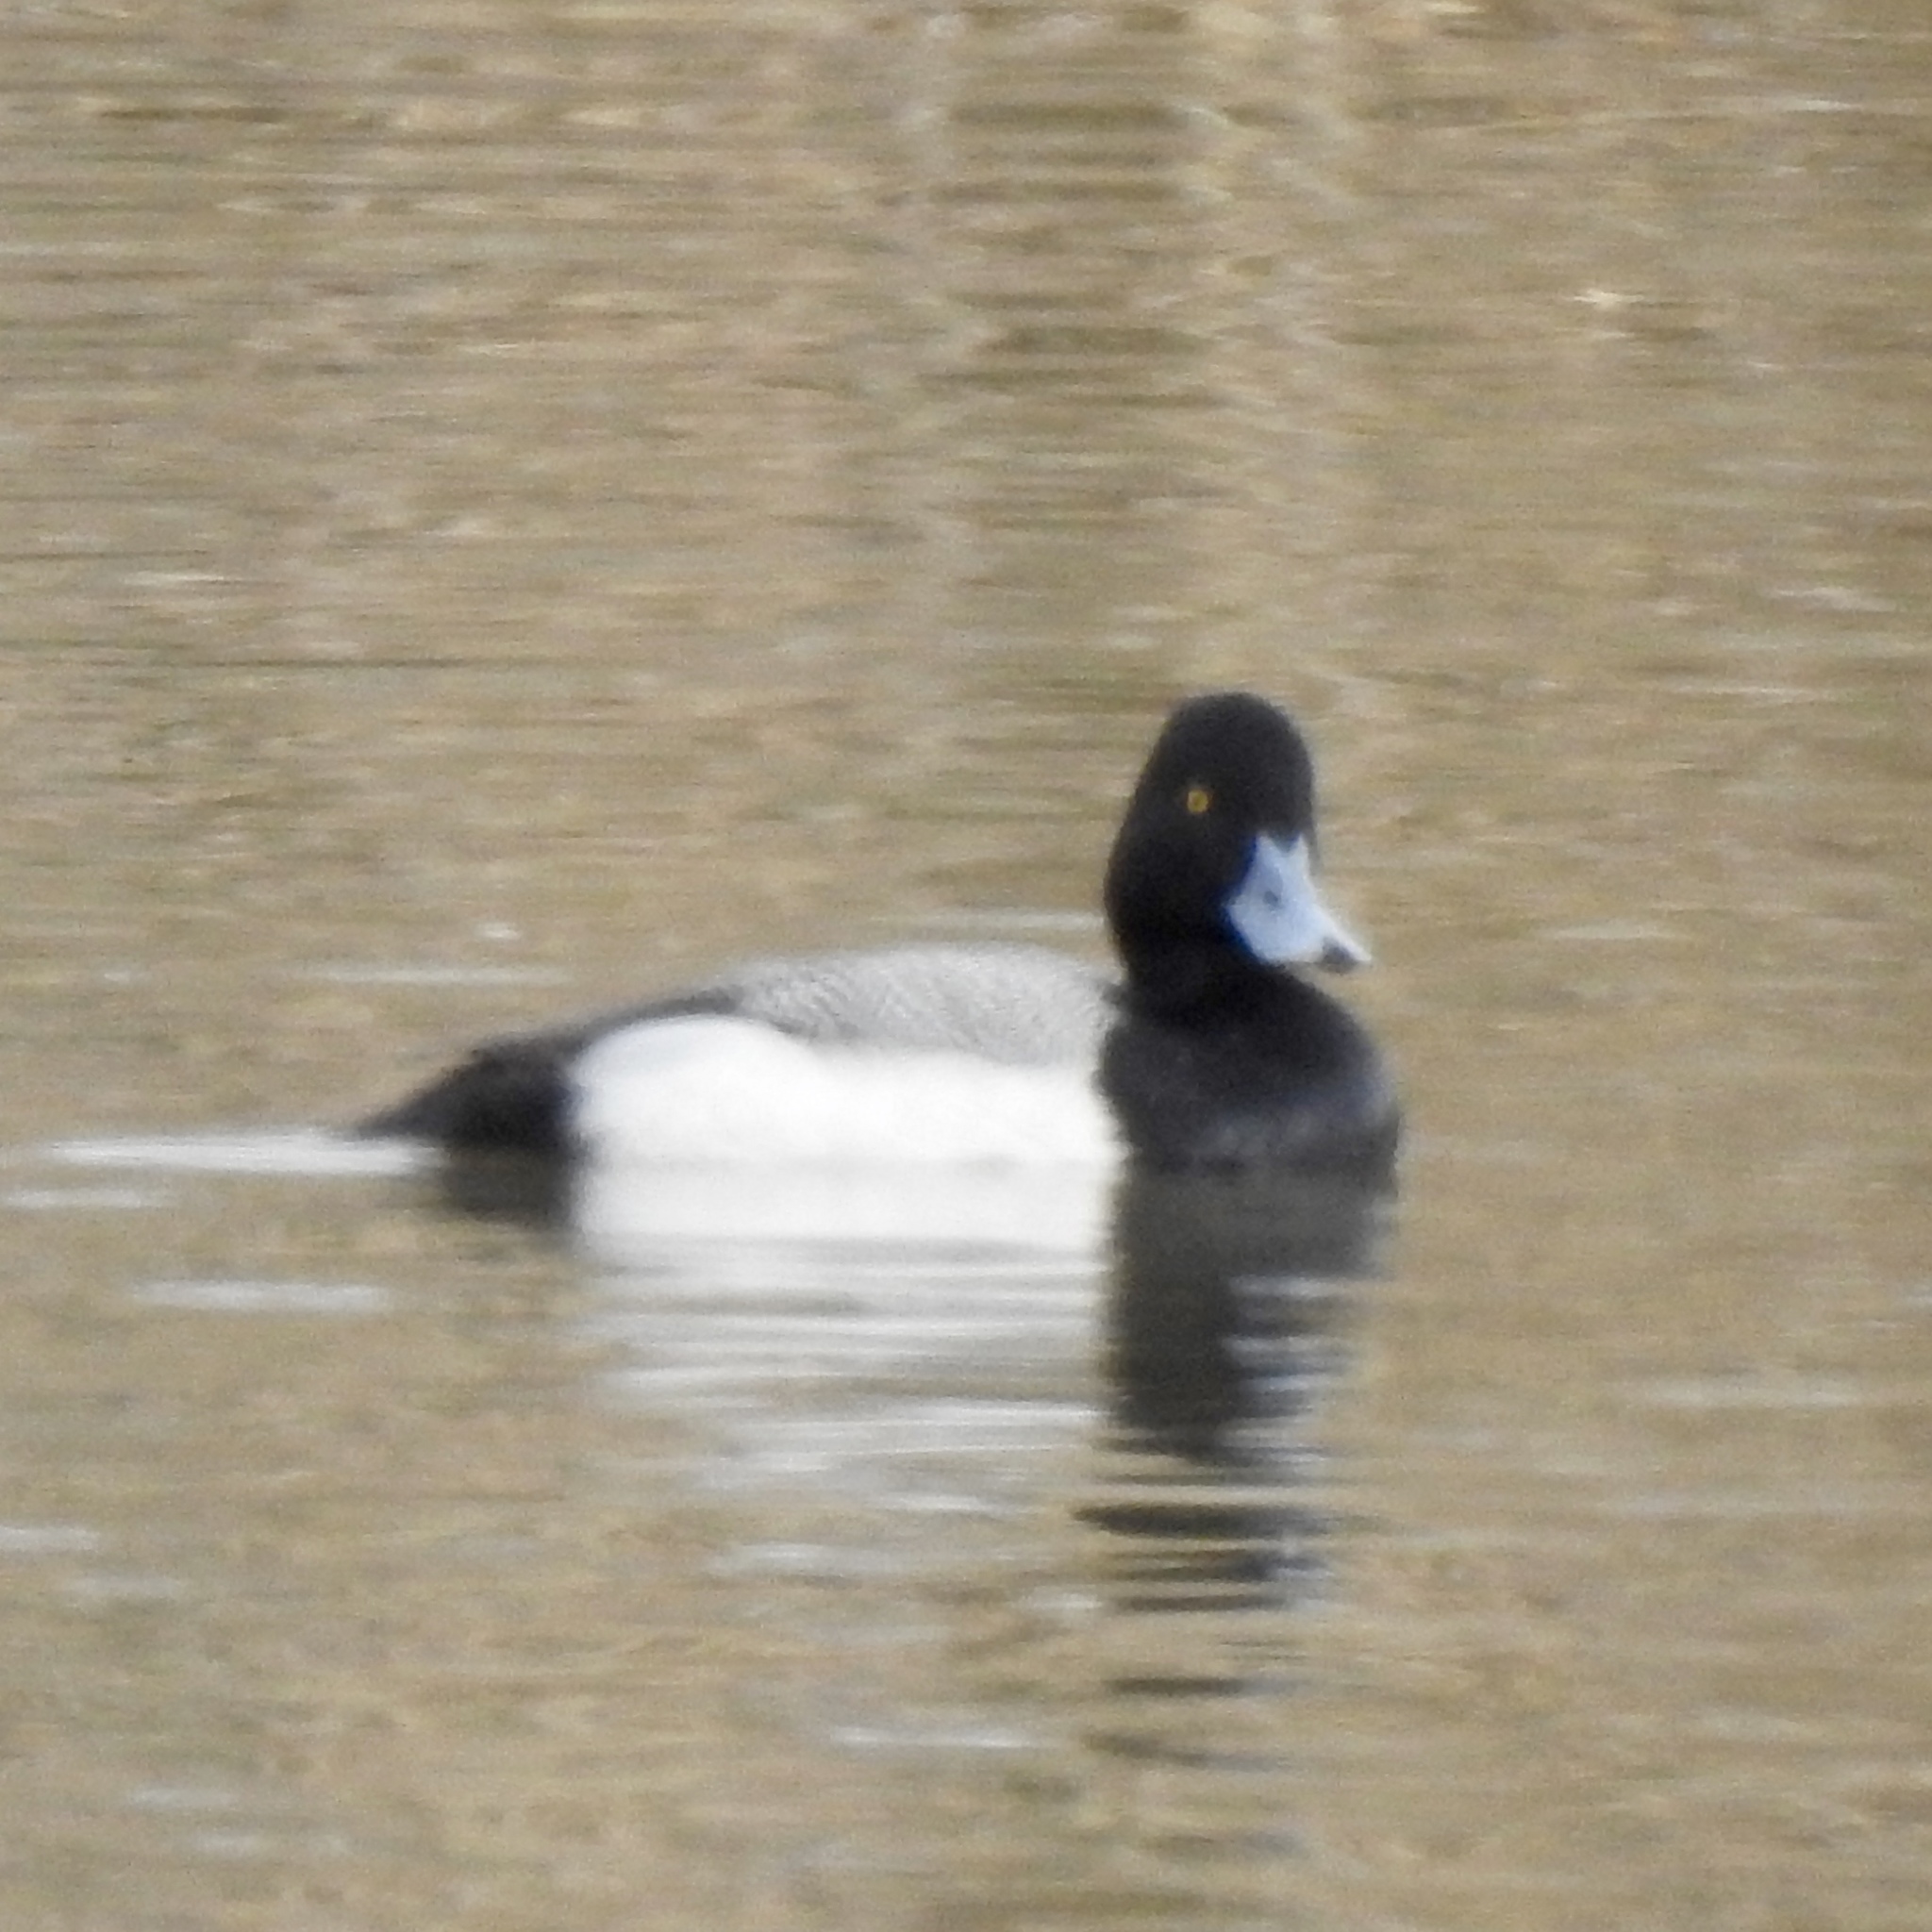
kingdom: Animalia
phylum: Chordata
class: Aves
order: Anseriformes
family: Anatidae
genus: Aythya
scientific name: Aythya affinis
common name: Lesser scaup
